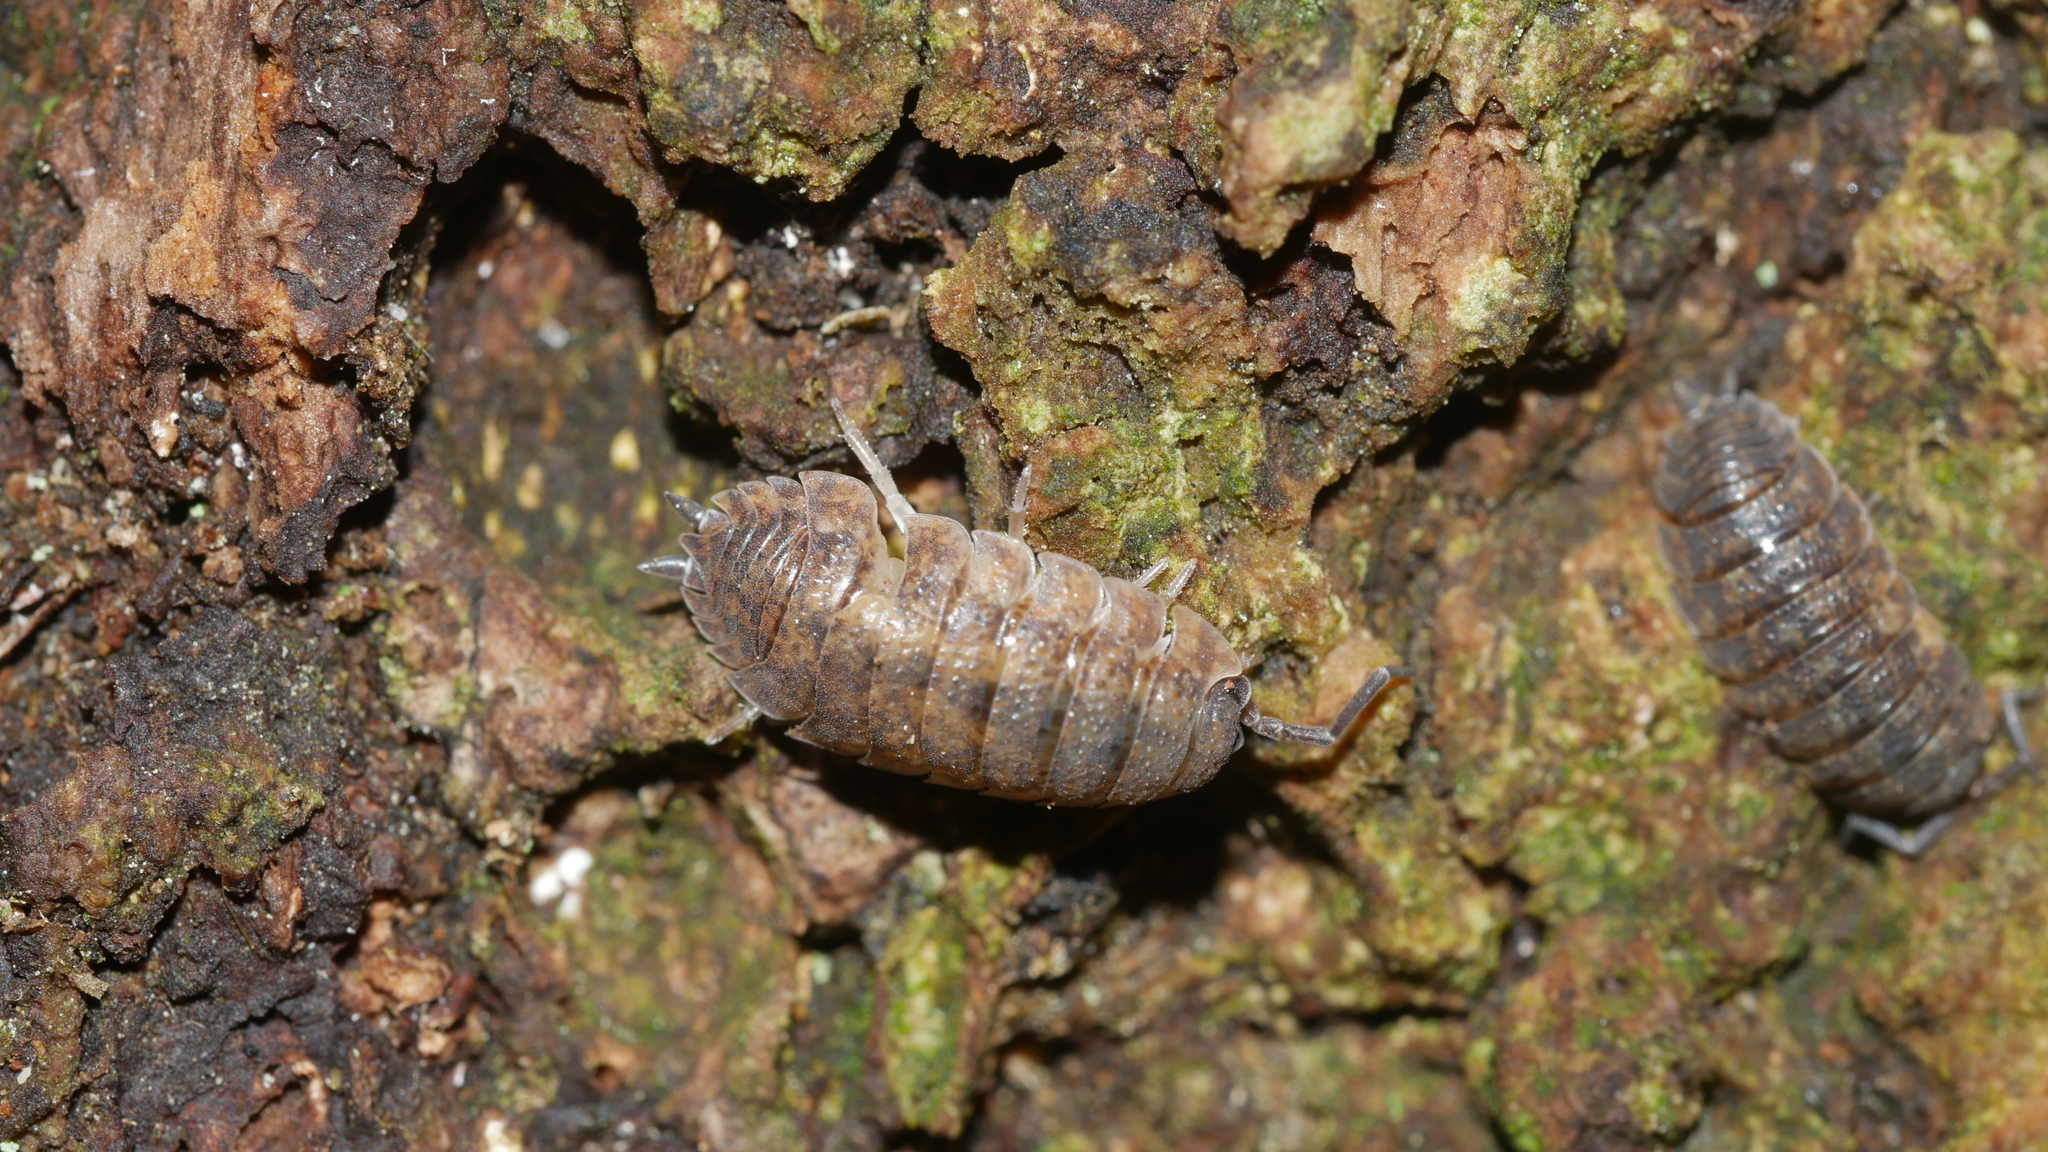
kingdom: Animalia
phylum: Arthropoda
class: Malacostraca
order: Isopoda
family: Porcellionidae
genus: Porcellio
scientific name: Porcellio scaber
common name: Common rough woodlouse
